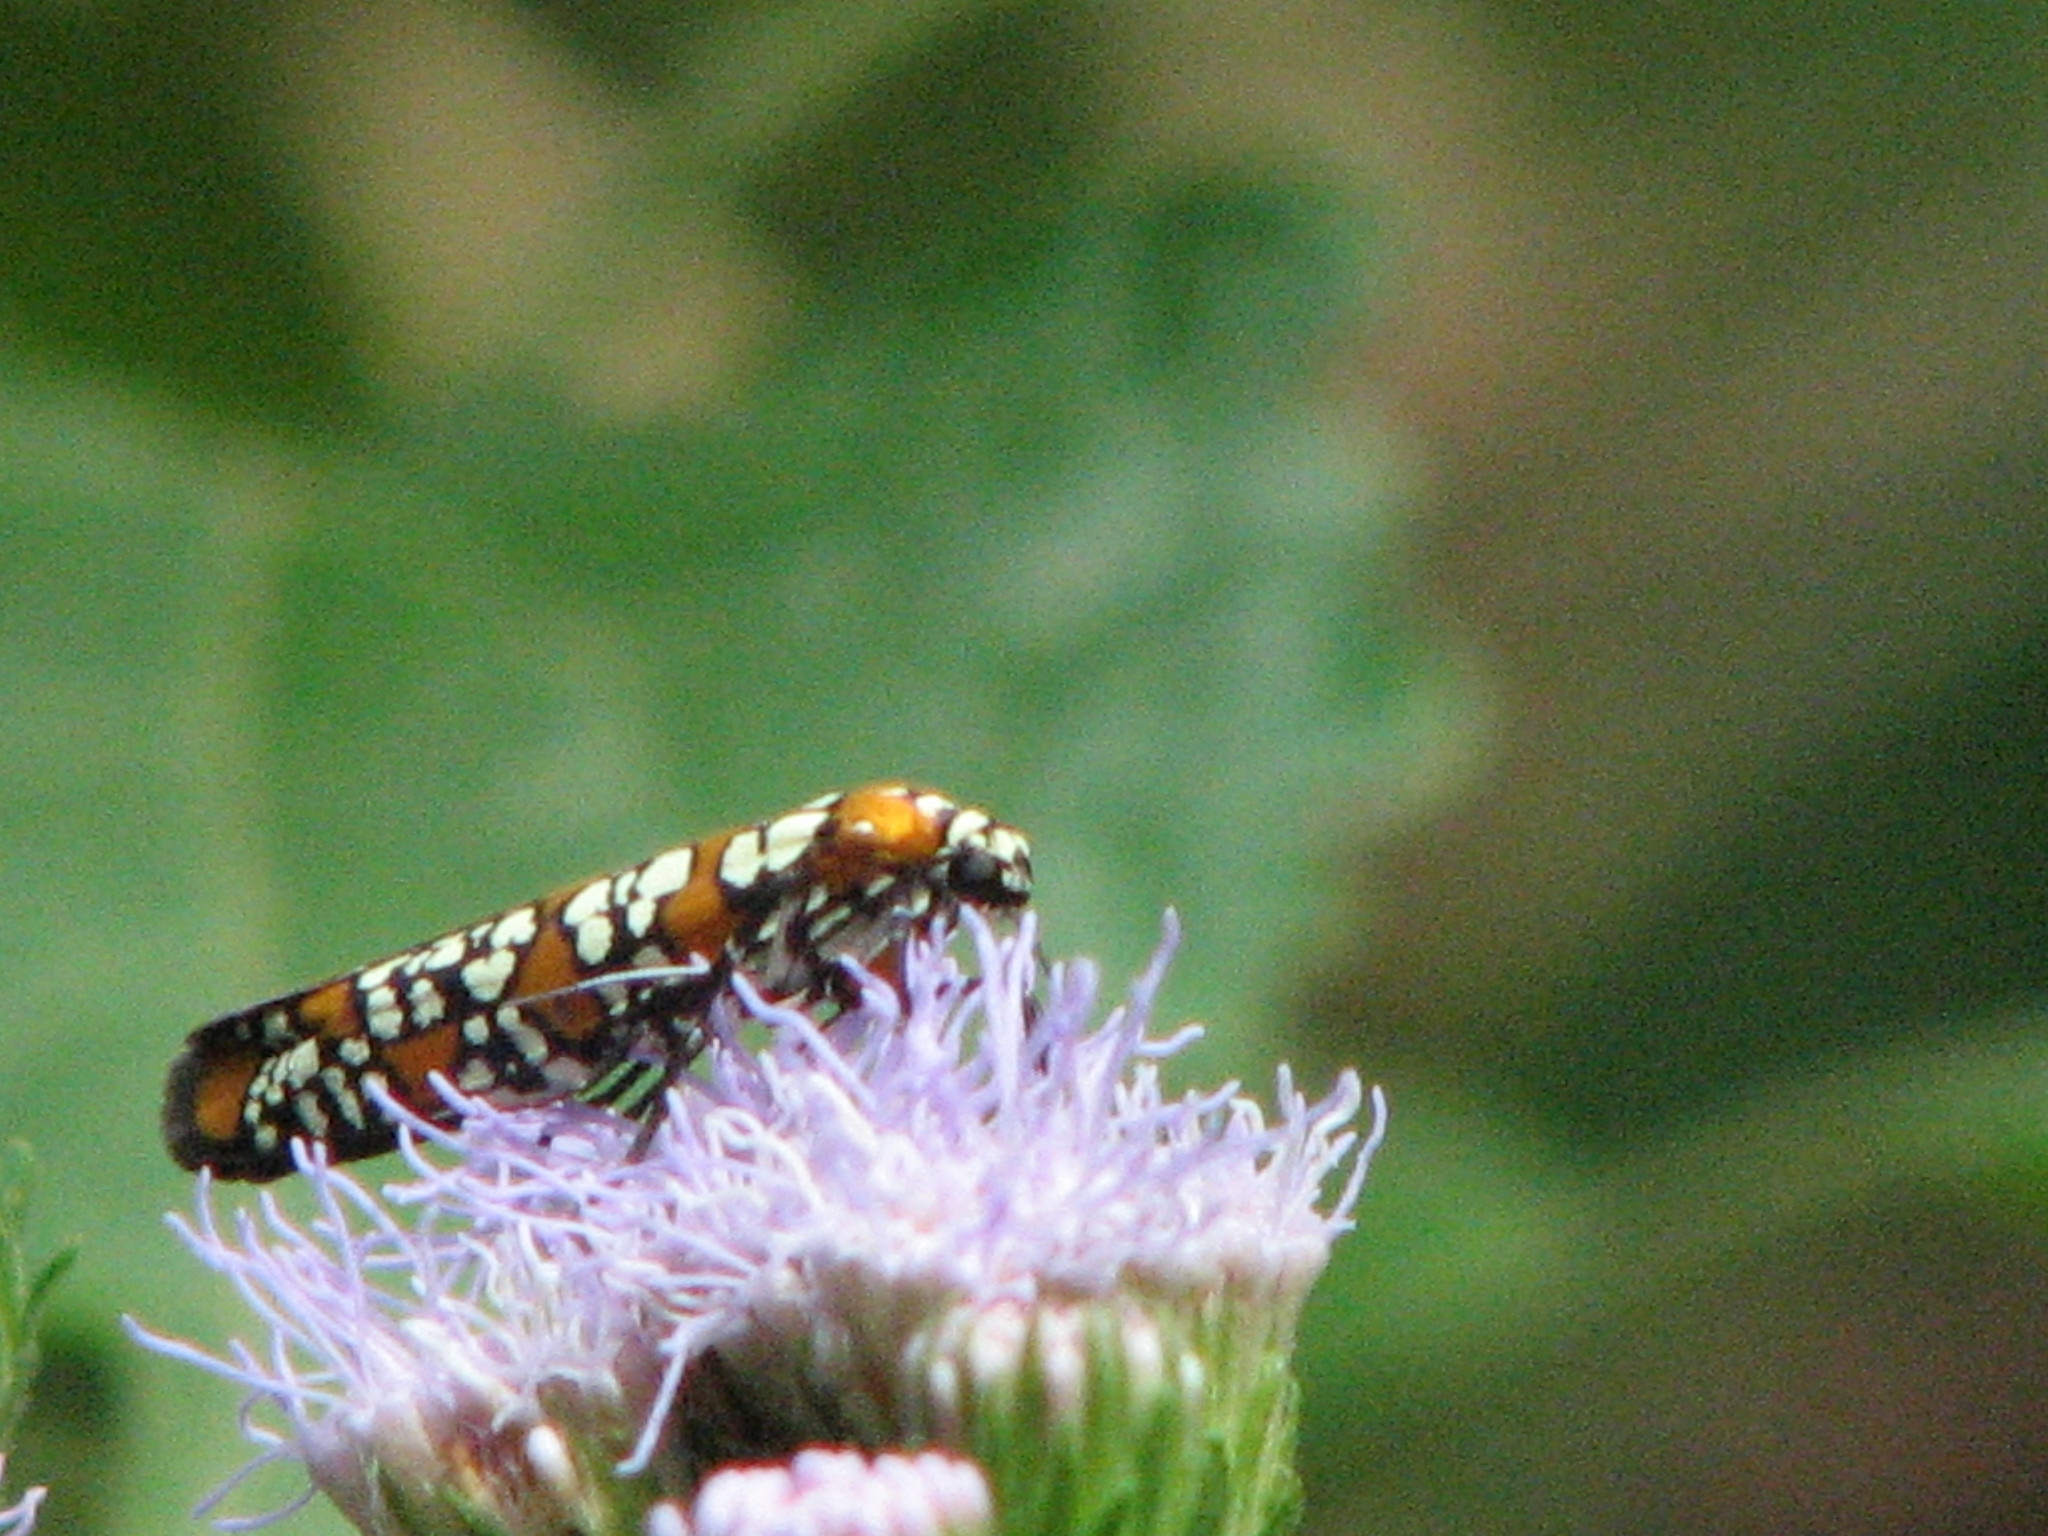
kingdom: Animalia
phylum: Arthropoda
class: Insecta
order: Lepidoptera
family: Attevidae
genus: Atteva
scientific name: Atteva punctella
